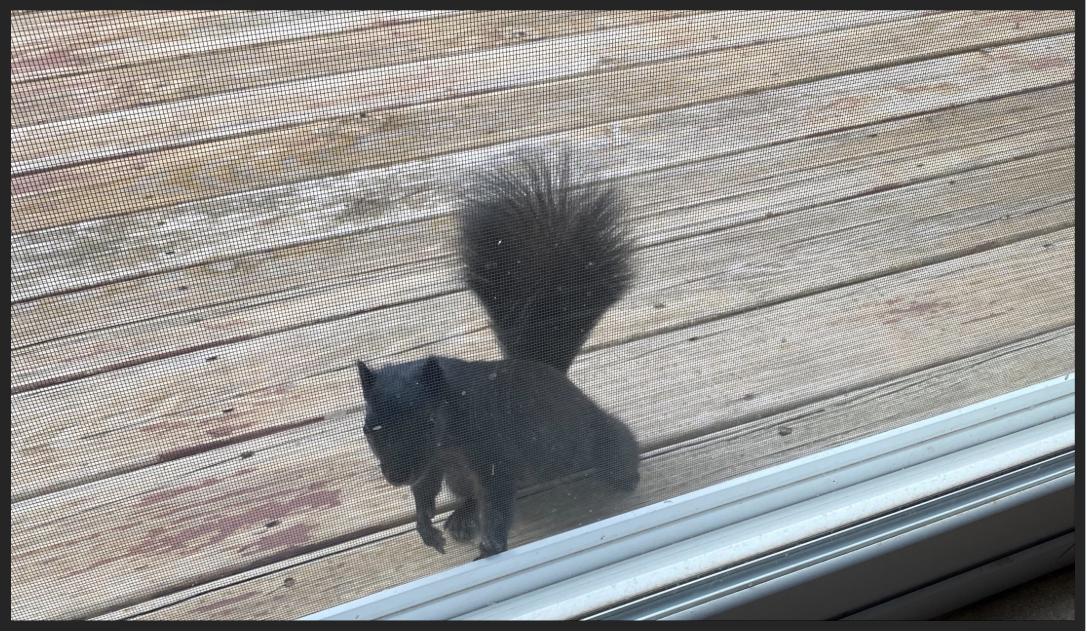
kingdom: Animalia
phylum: Chordata
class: Mammalia
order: Rodentia
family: Sciuridae
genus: Sciurus
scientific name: Sciurus niger
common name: Fox squirrel
